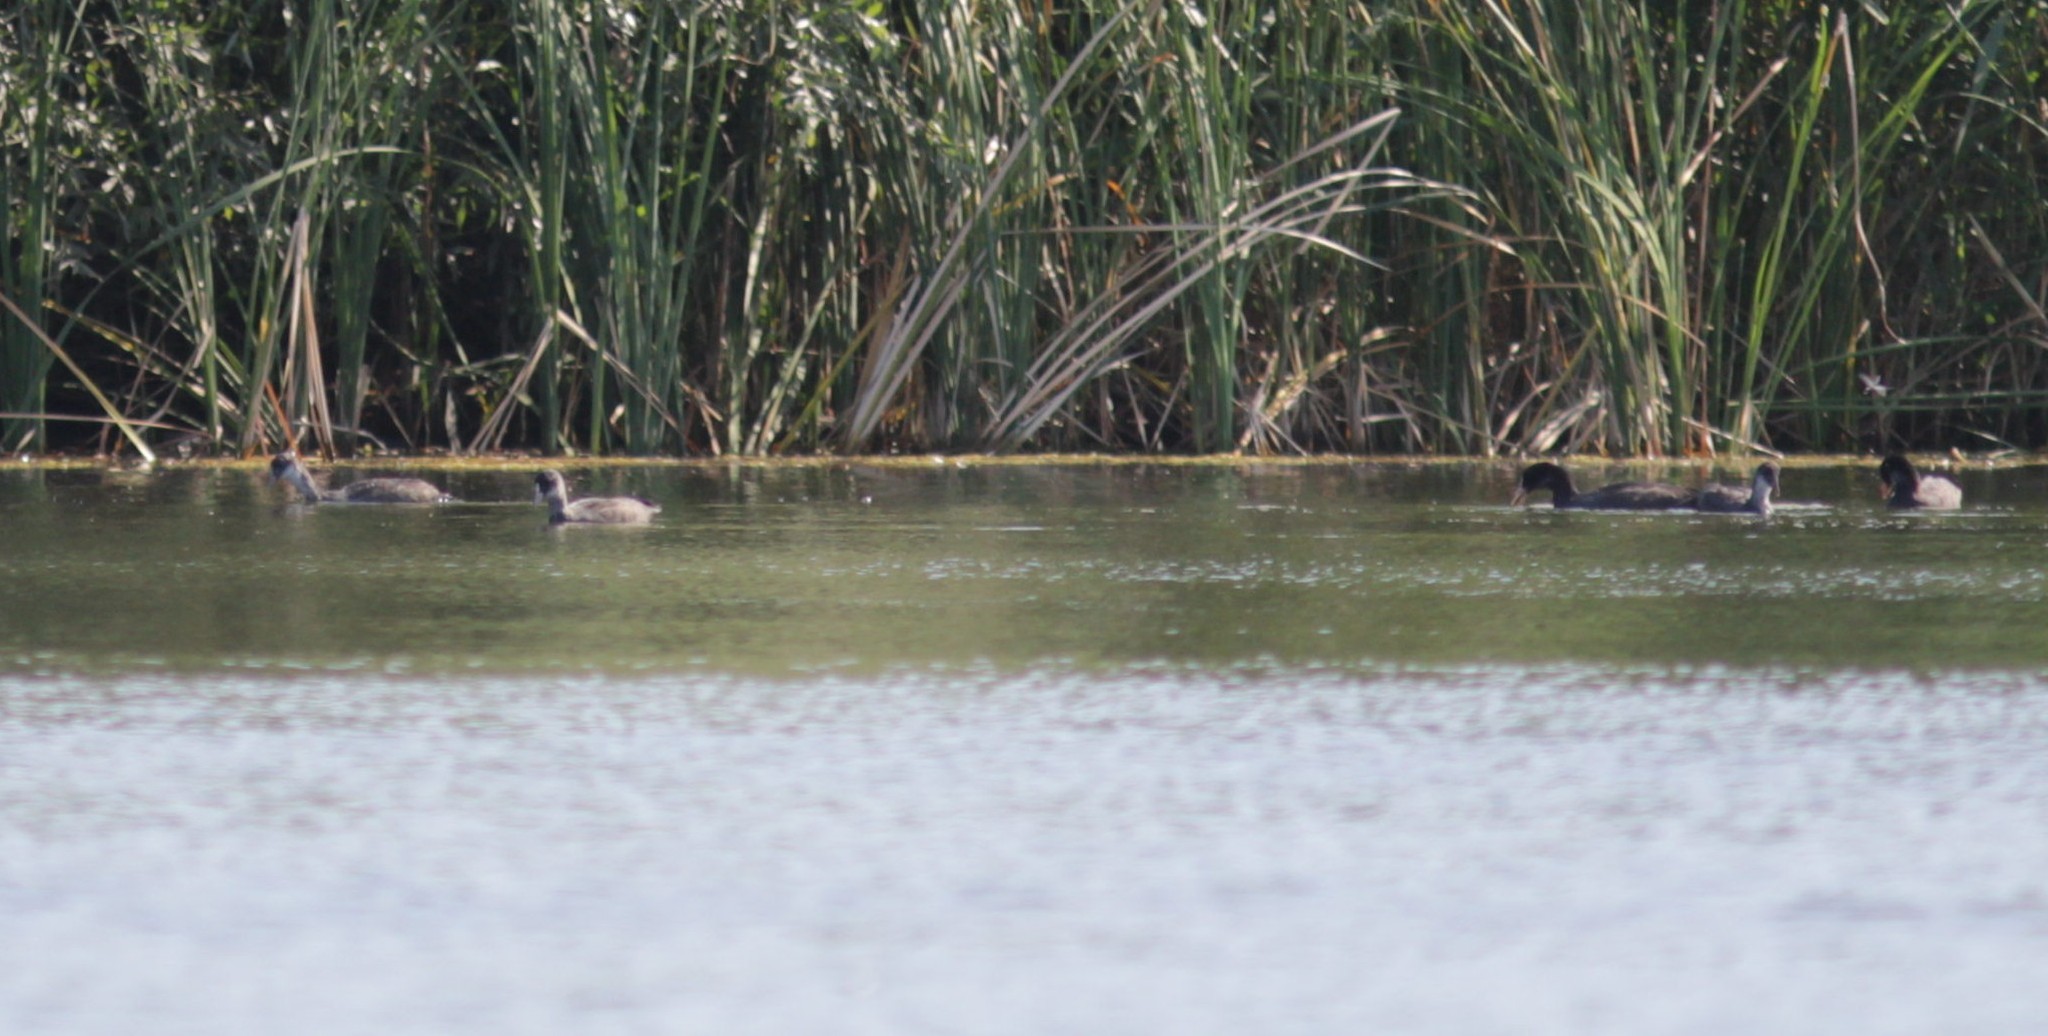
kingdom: Animalia
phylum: Chordata
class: Aves
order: Gruiformes
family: Rallidae
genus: Fulica
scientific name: Fulica atra
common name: Eurasian coot
